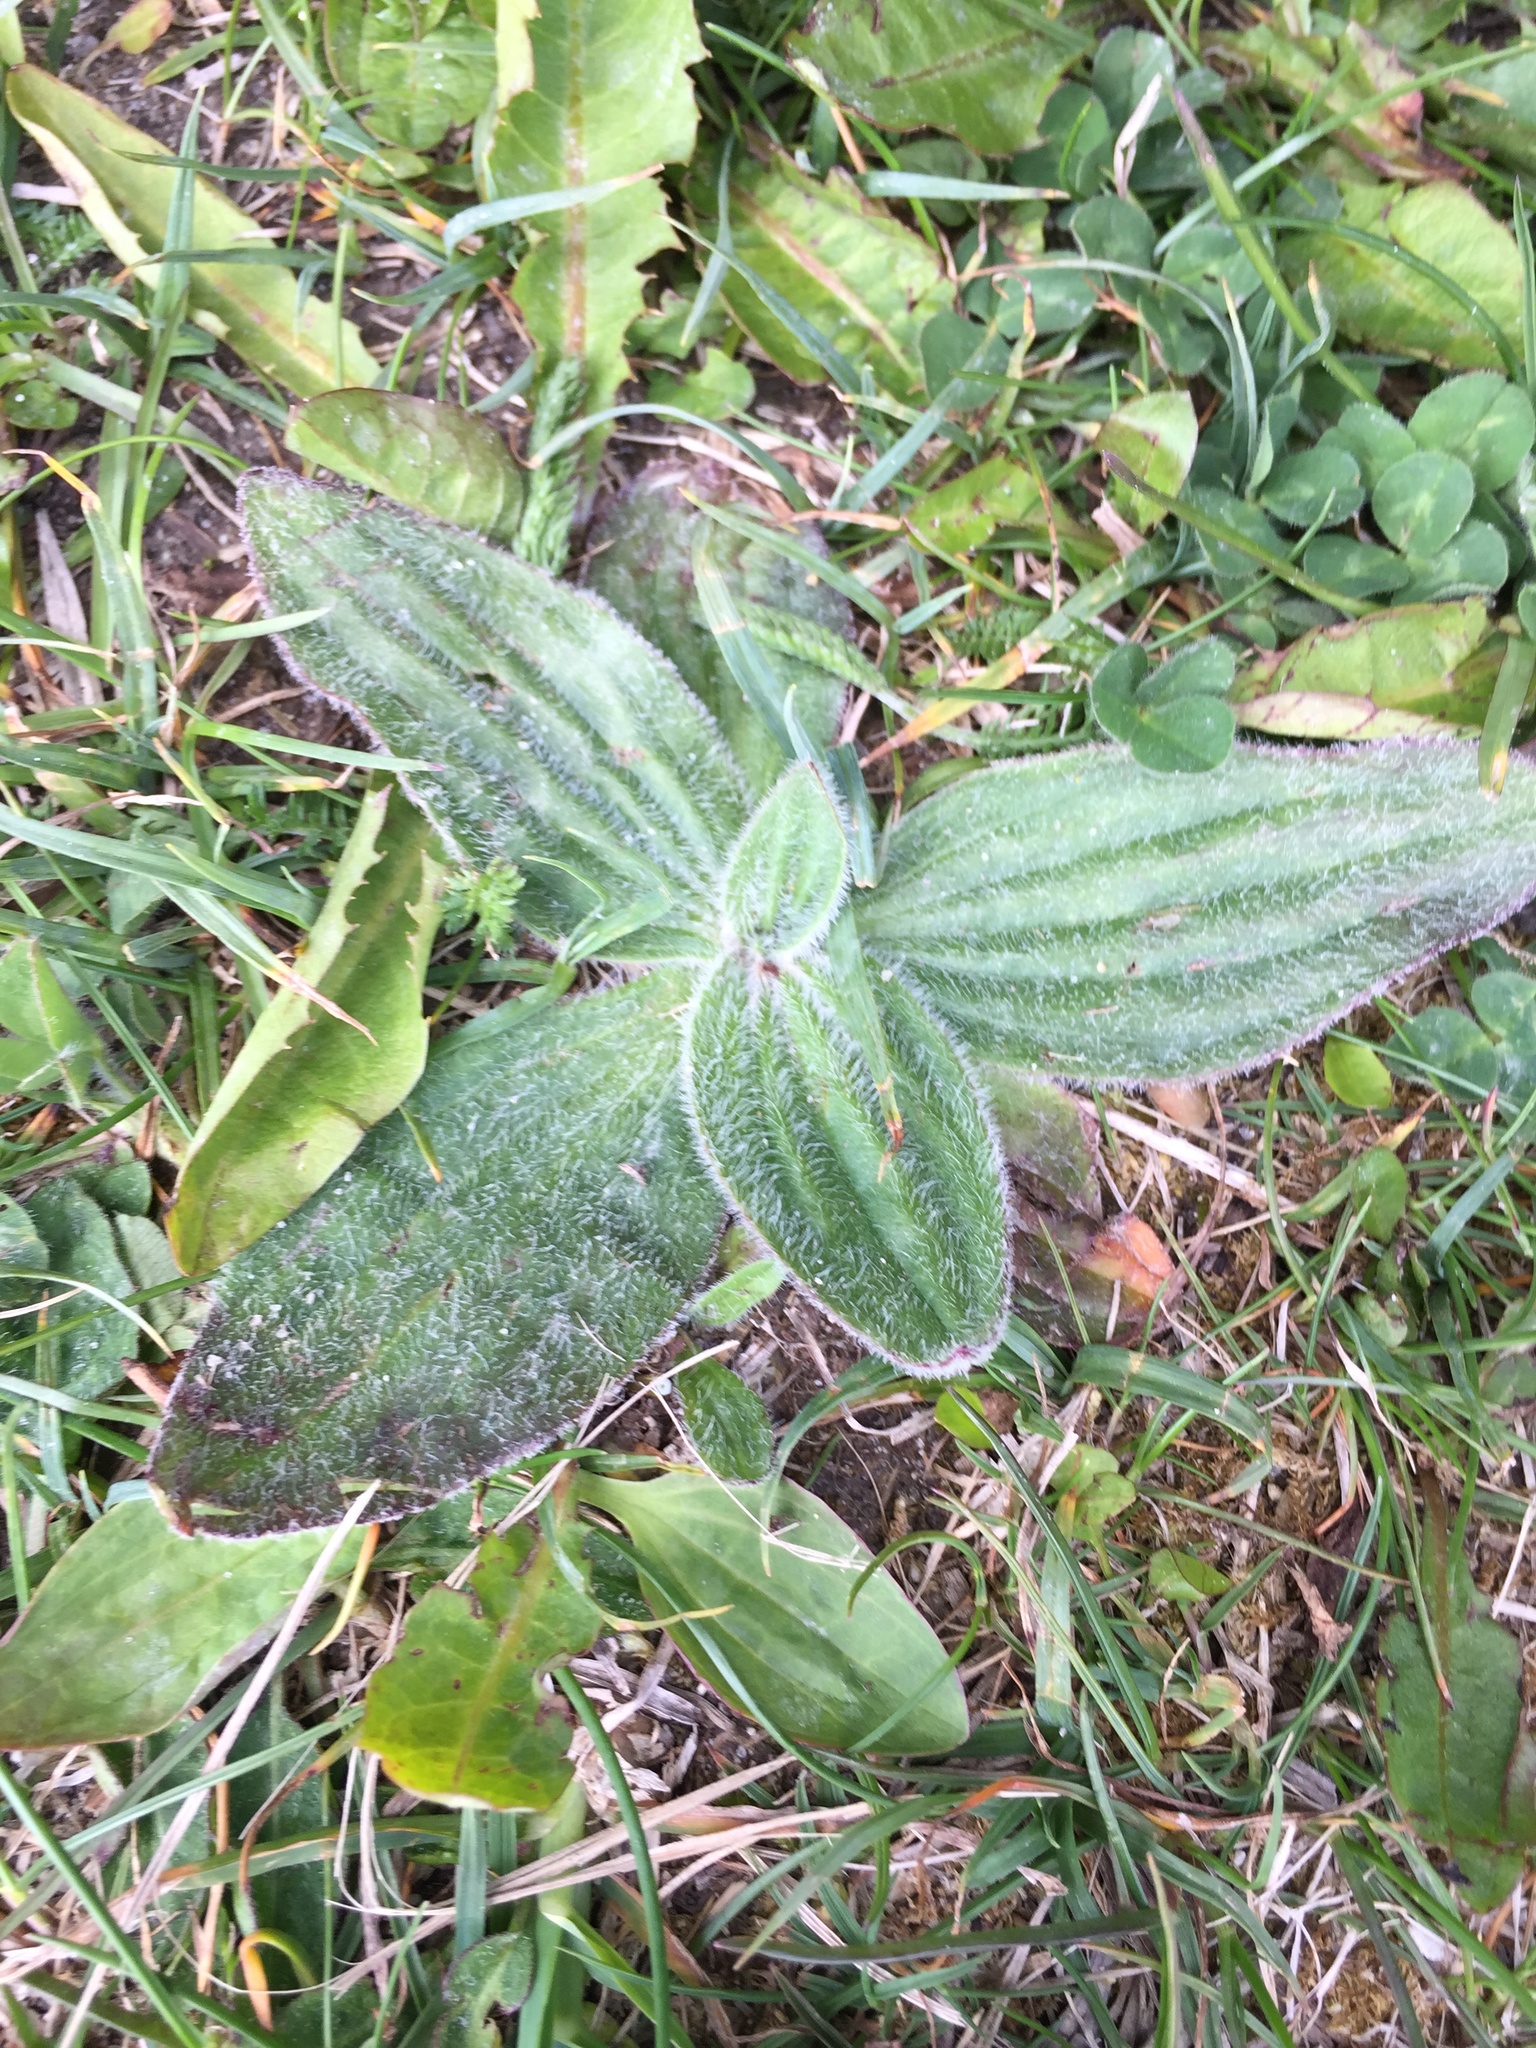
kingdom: Plantae
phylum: Tracheophyta
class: Magnoliopsida
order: Lamiales
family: Plantaginaceae
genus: Plantago
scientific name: Plantago media
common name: Hoary plantain
